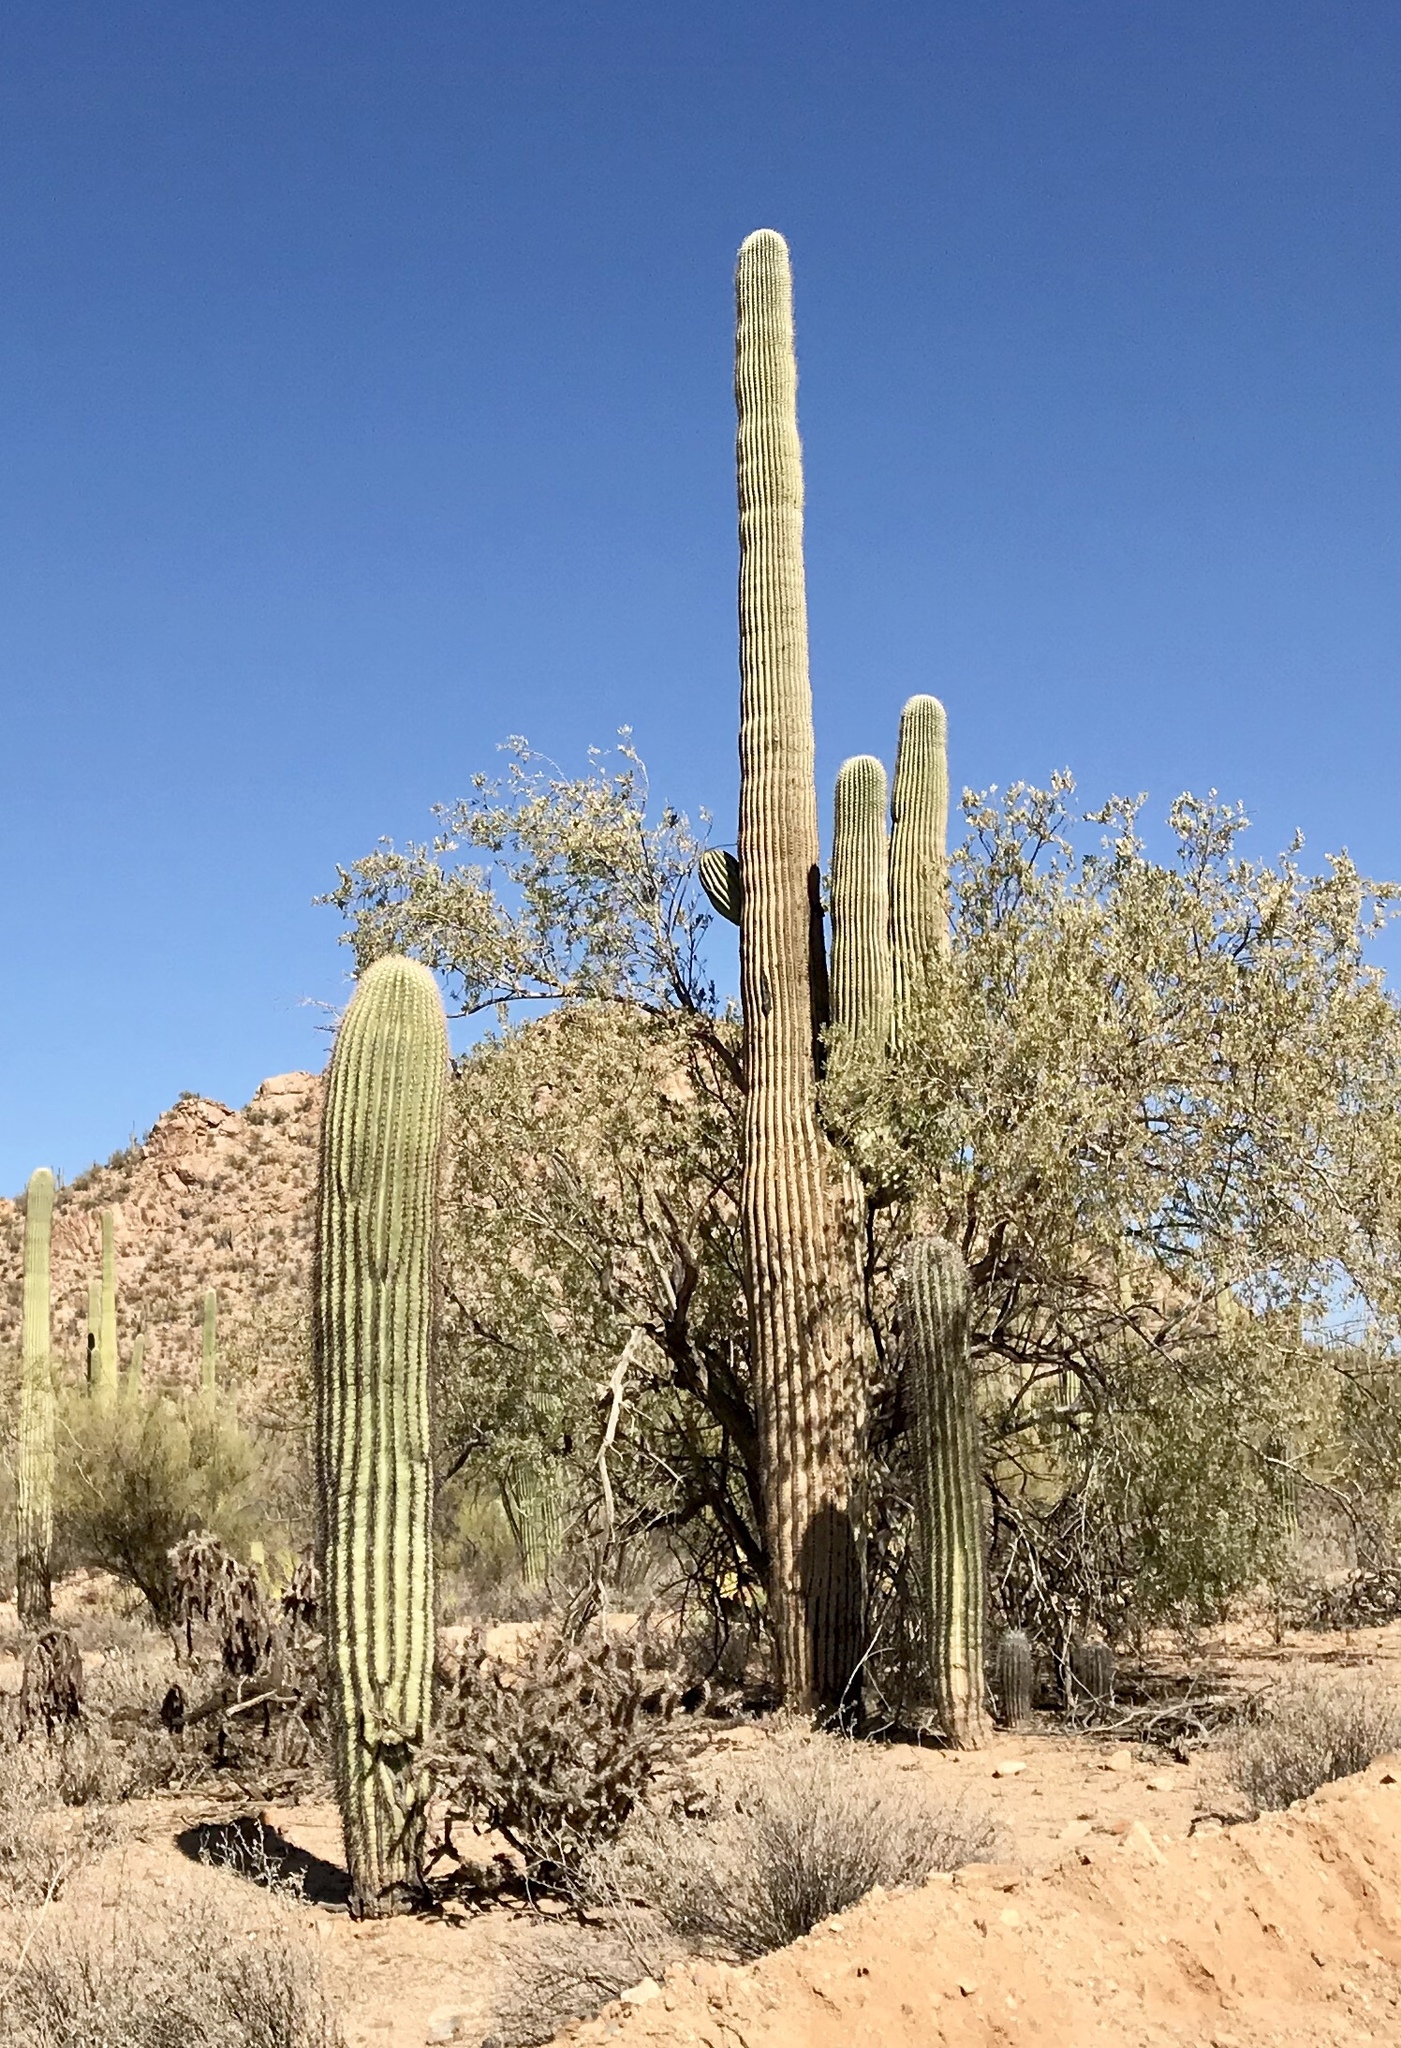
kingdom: Plantae
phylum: Tracheophyta
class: Magnoliopsida
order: Caryophyllales
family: Cactaceae
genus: Carnegiea
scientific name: Carnegiea gigantea
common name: Saguaro
